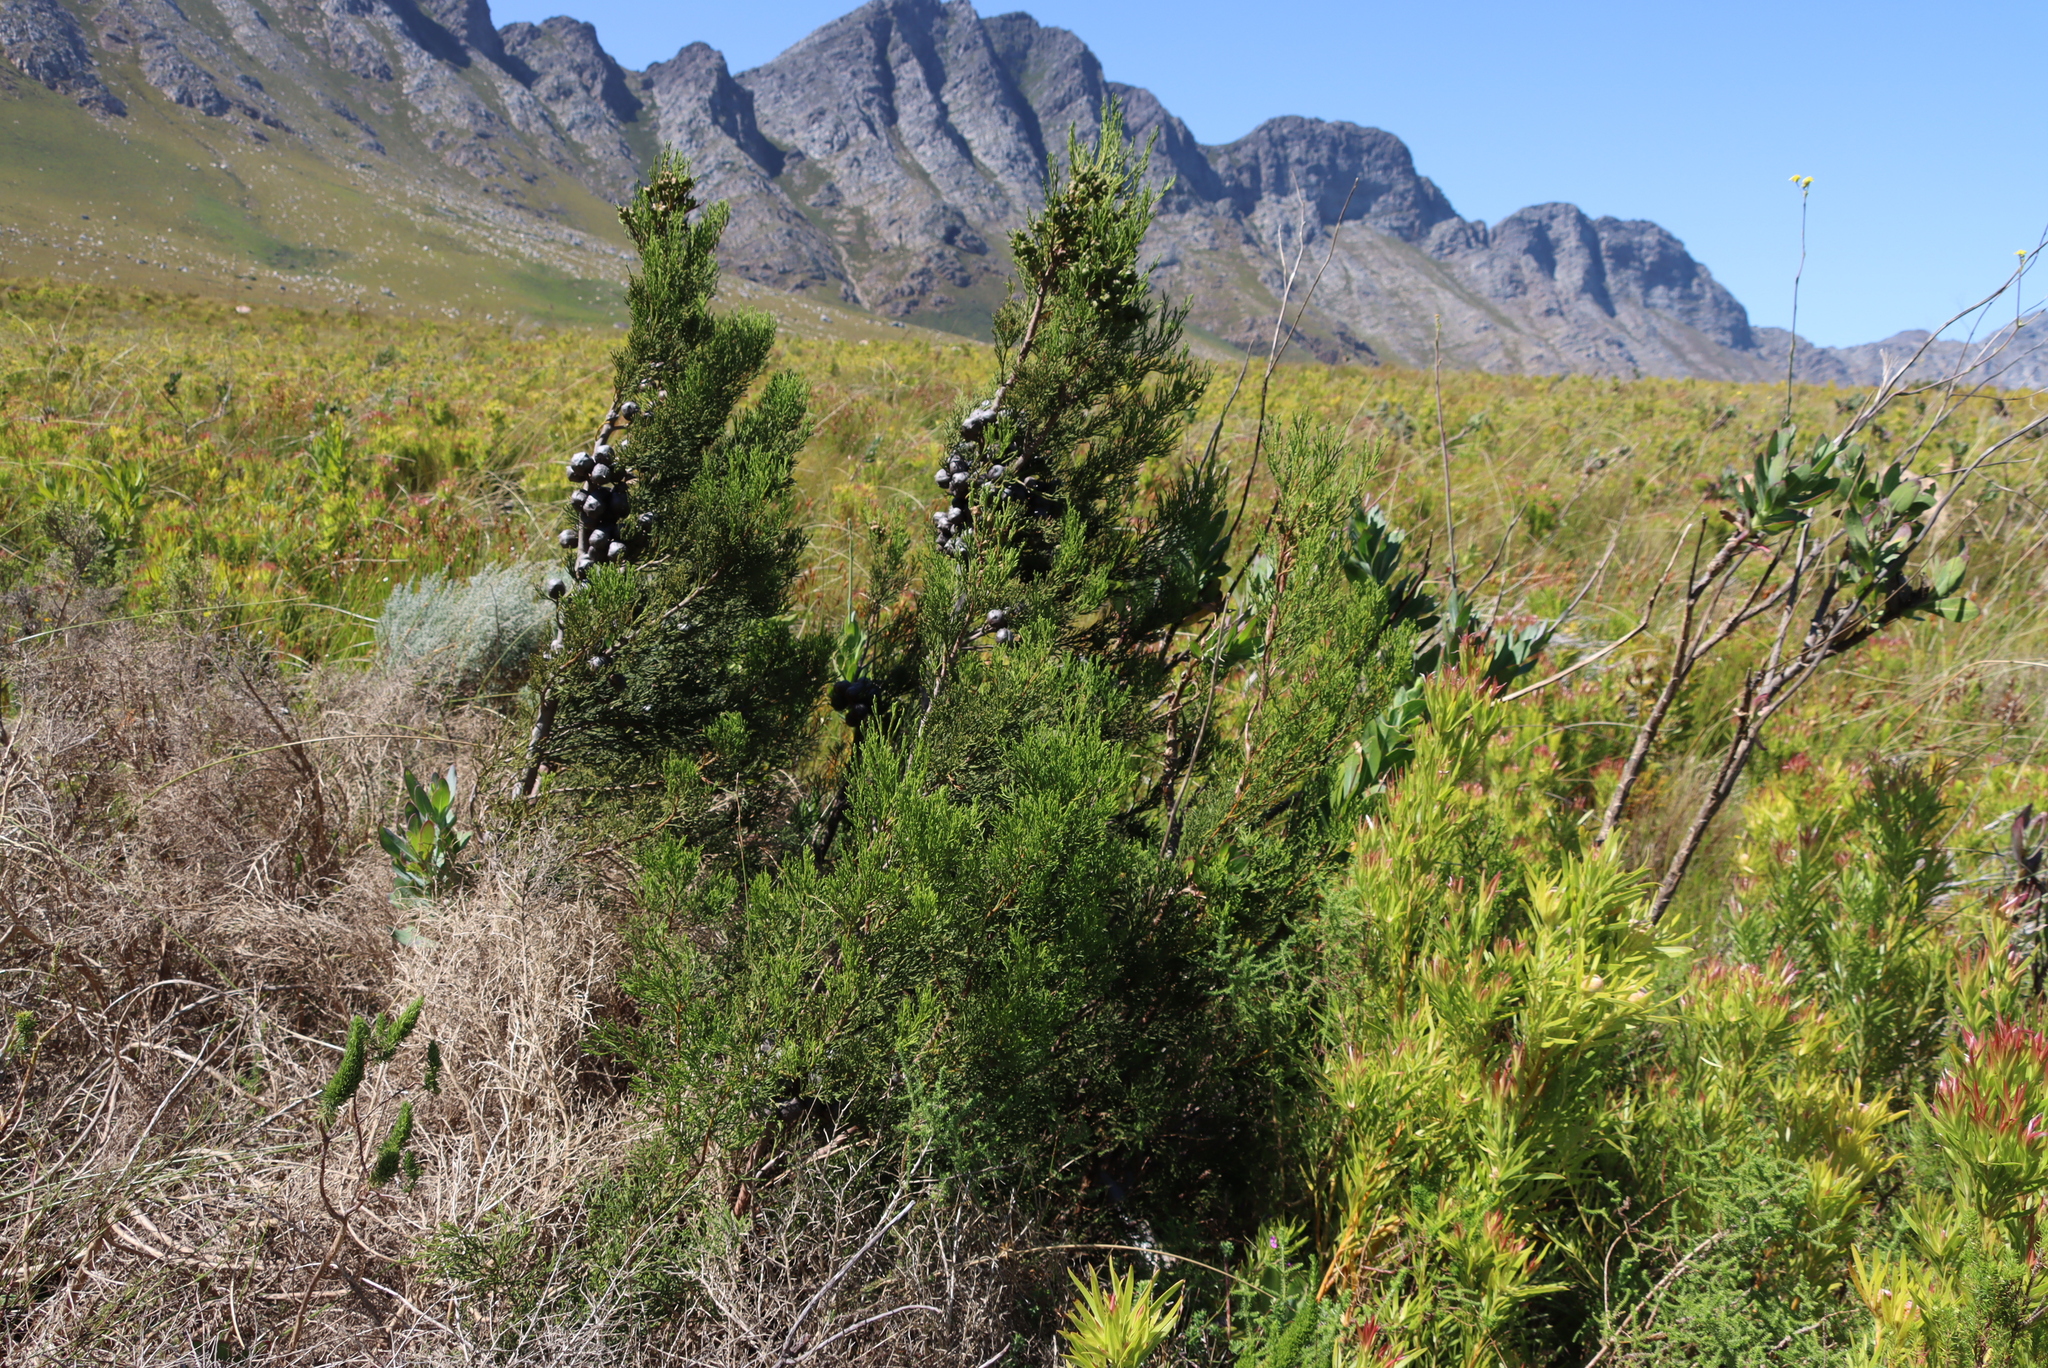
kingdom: Plantae
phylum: Tracheophyta
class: Pinopsida
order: Pinales
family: Cupressaceae
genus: Widdringtonia
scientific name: Widdringtonia nodiflora
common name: Cape cypress
